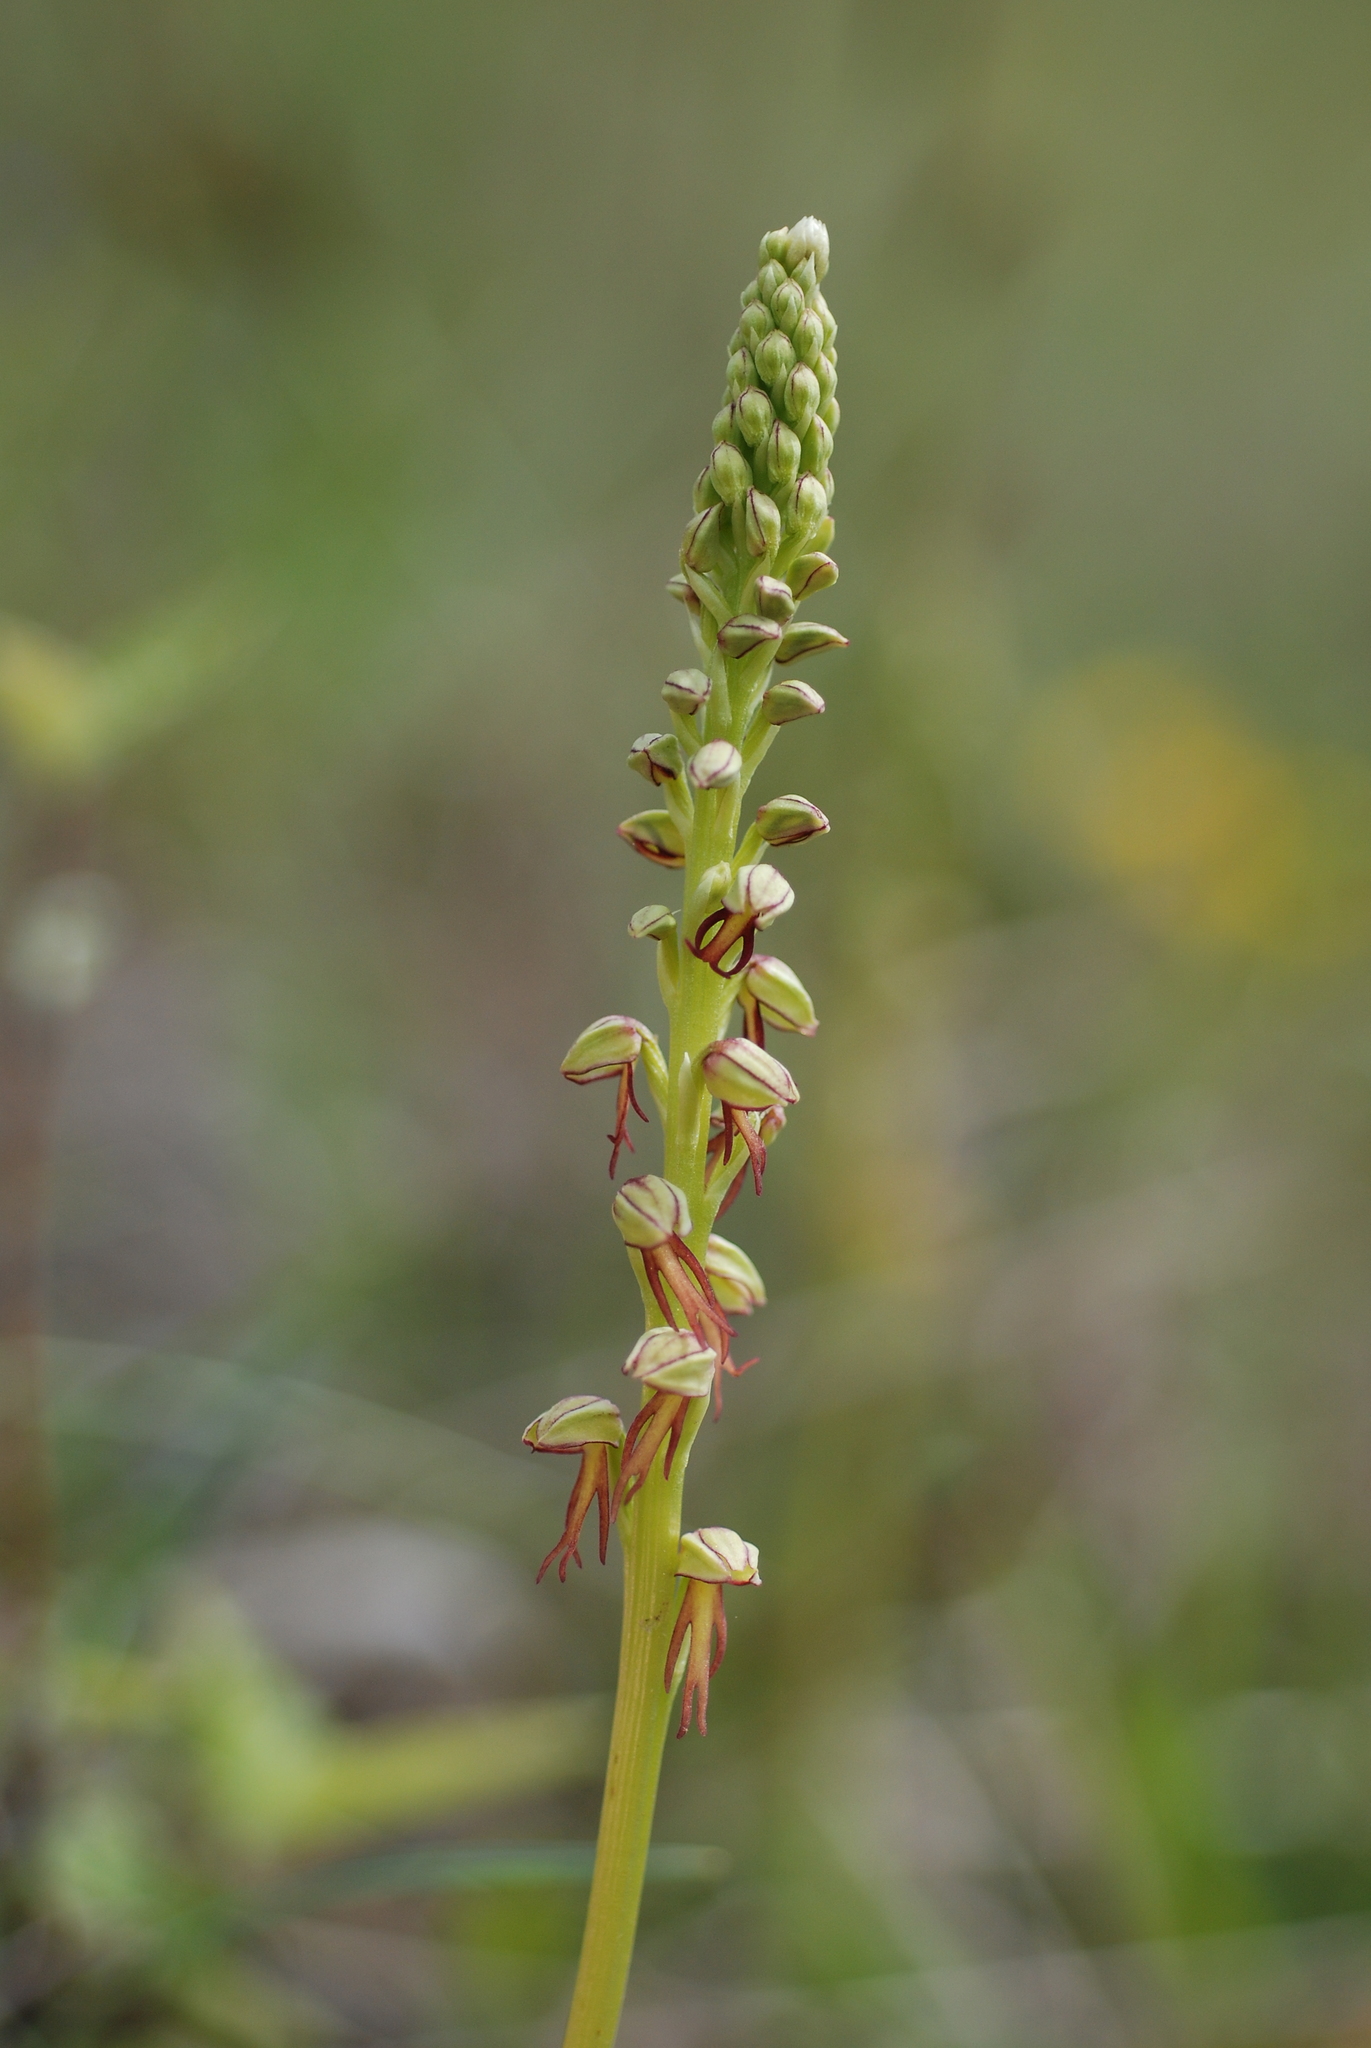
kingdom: Plantae
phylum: Tracheophyta
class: Liliopsida
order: Asparagales
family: Orchidaceae
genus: Orchis
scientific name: Orchis anthropophora
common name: Man orchid
